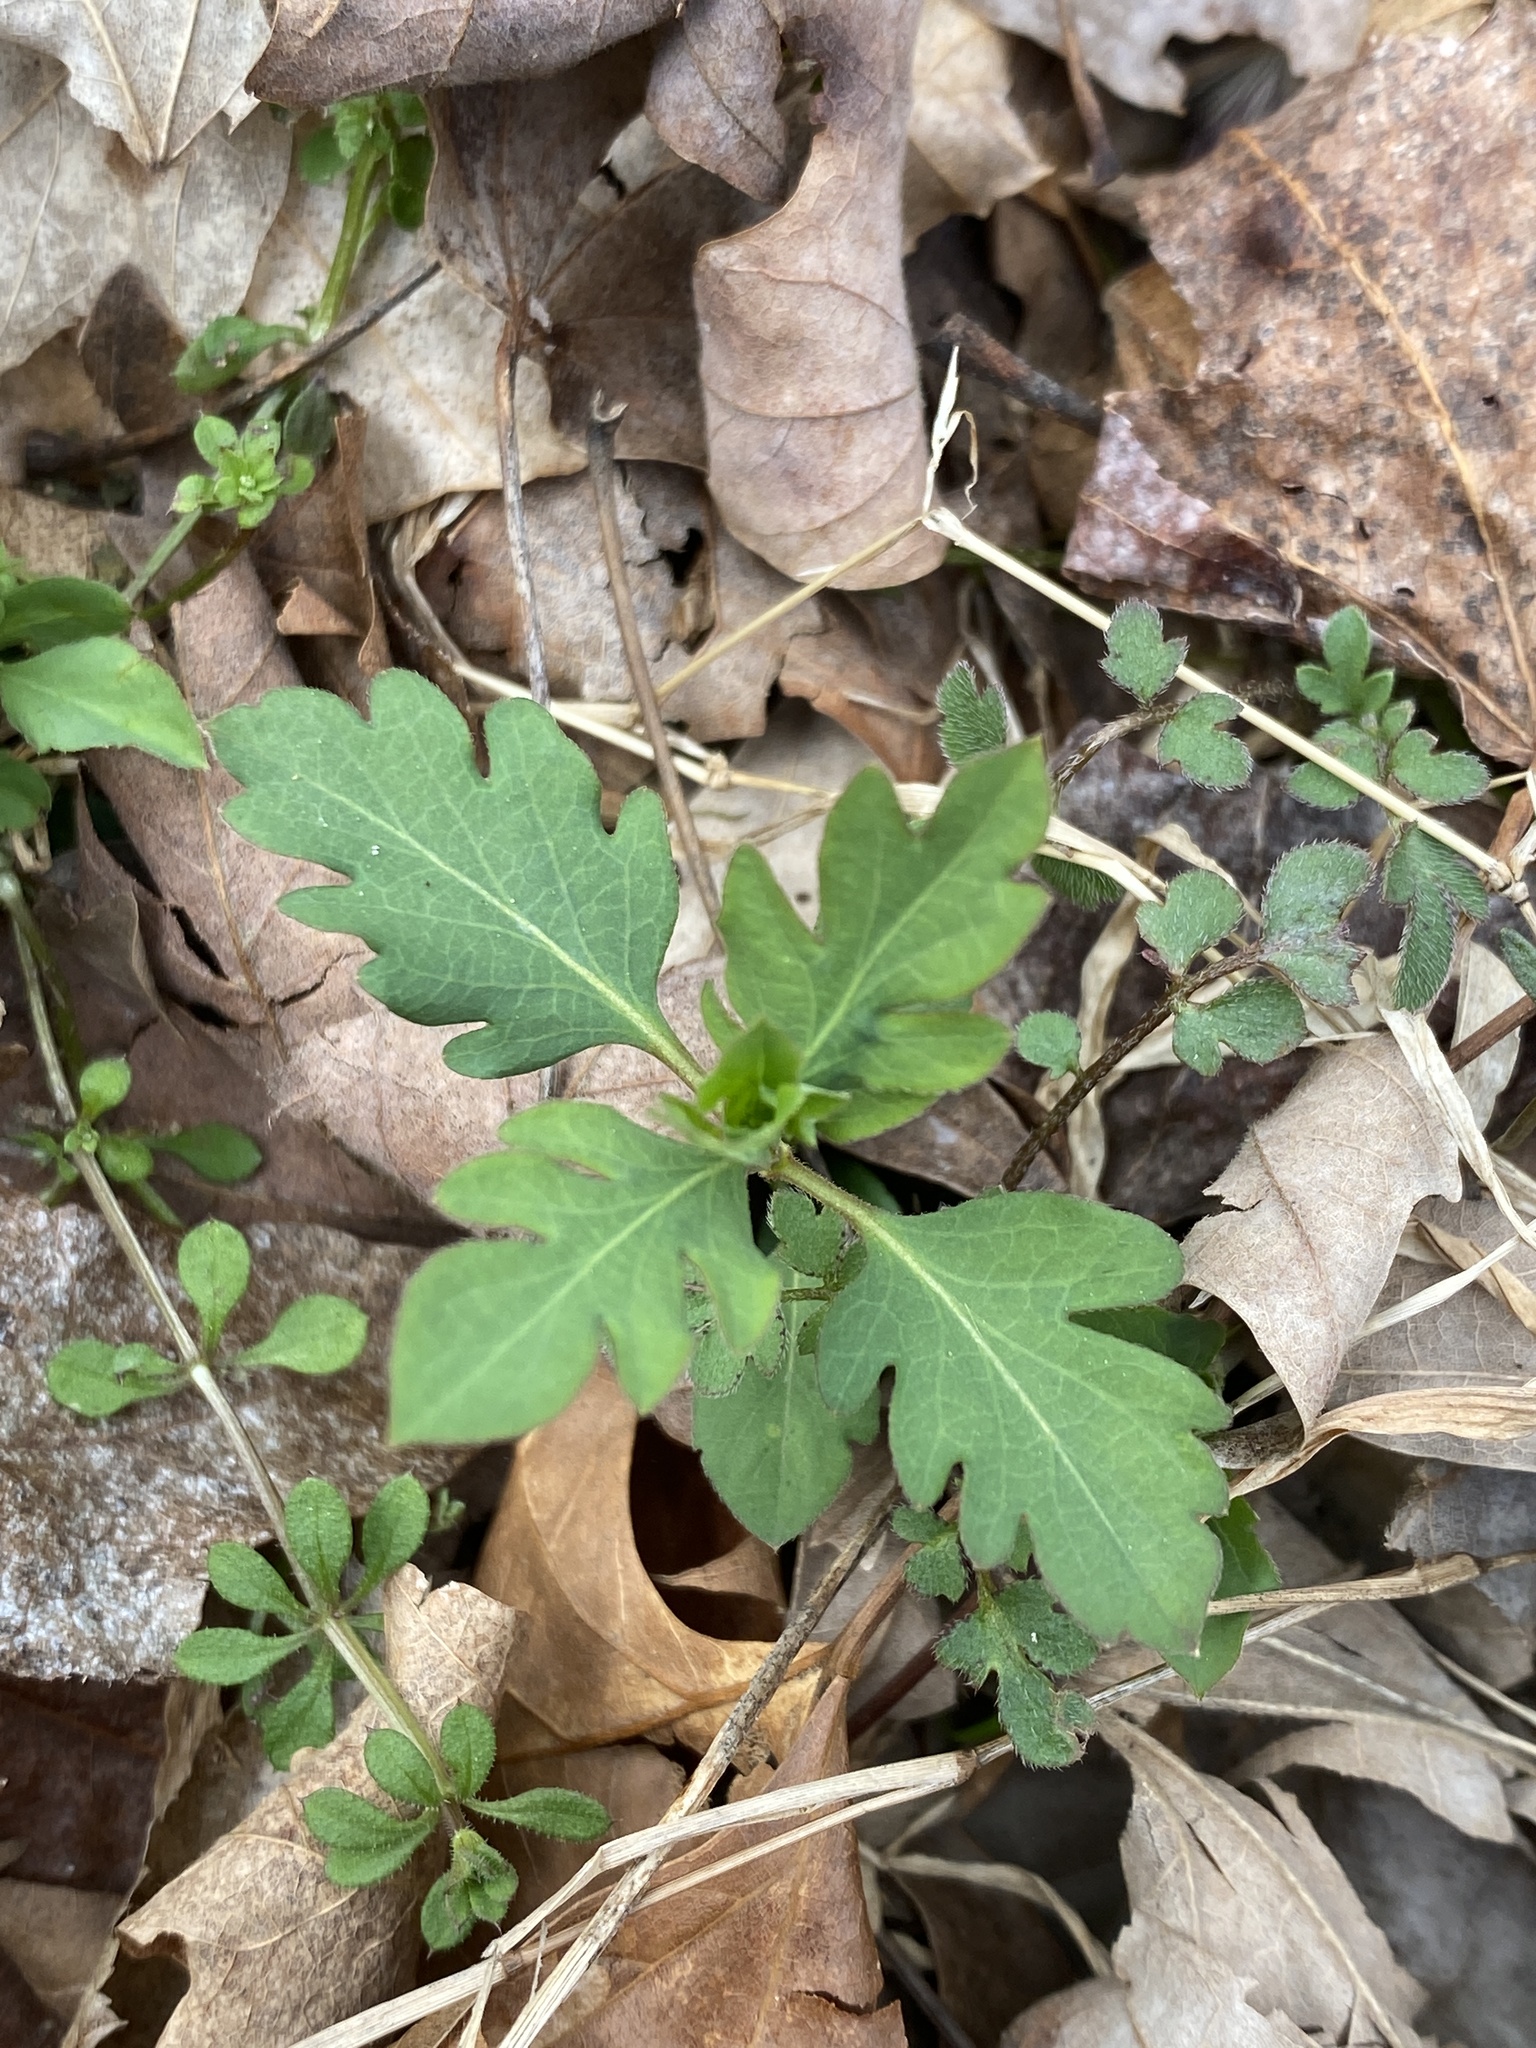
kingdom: Plantae
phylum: Tracheophyta
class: Magnoliopsida
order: Dipsacales
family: Caprifoliaceae
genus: Lonicera
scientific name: Lonicera japonica
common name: Japanese honeysuckle
